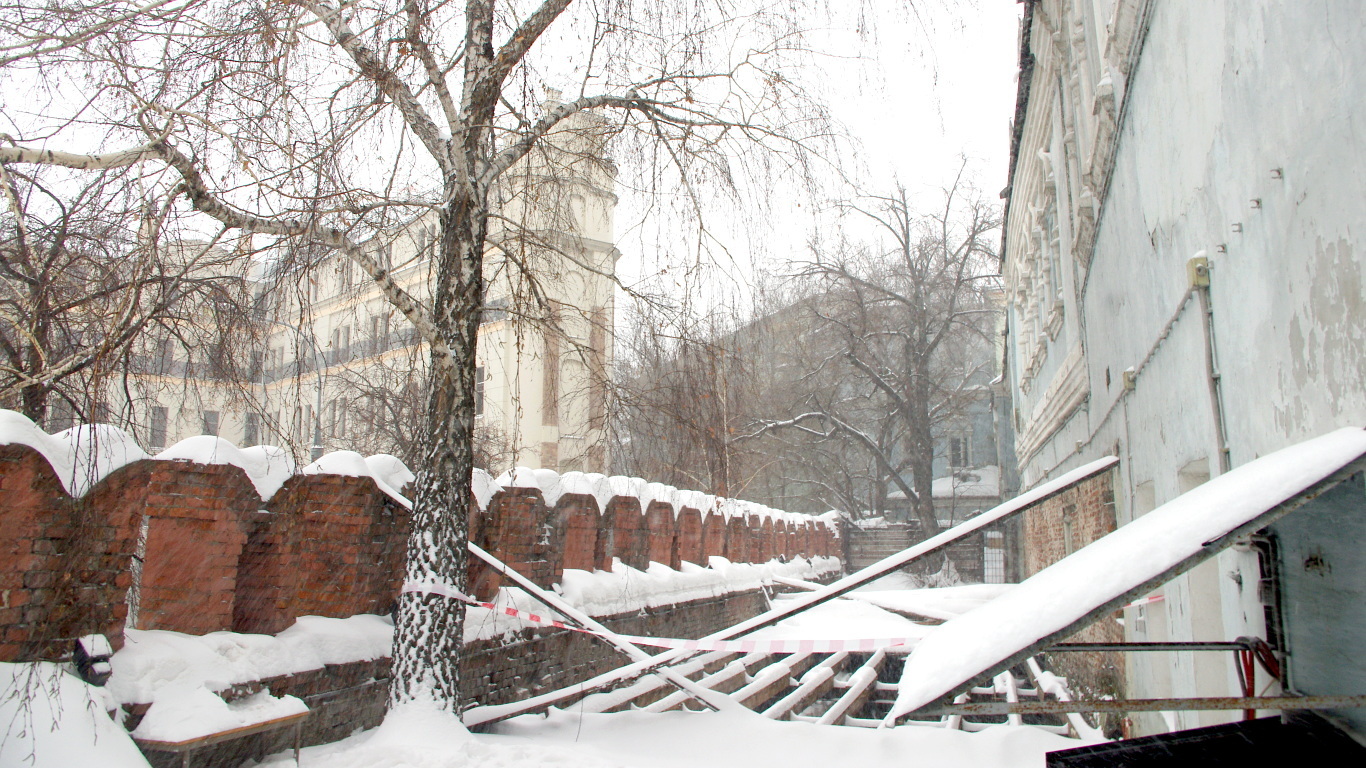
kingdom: Plantae
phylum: Tracheophyta
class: Magnoliopsida
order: Fagales
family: Betulaceae
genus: Betula
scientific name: Betula pendula
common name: Silver birch
